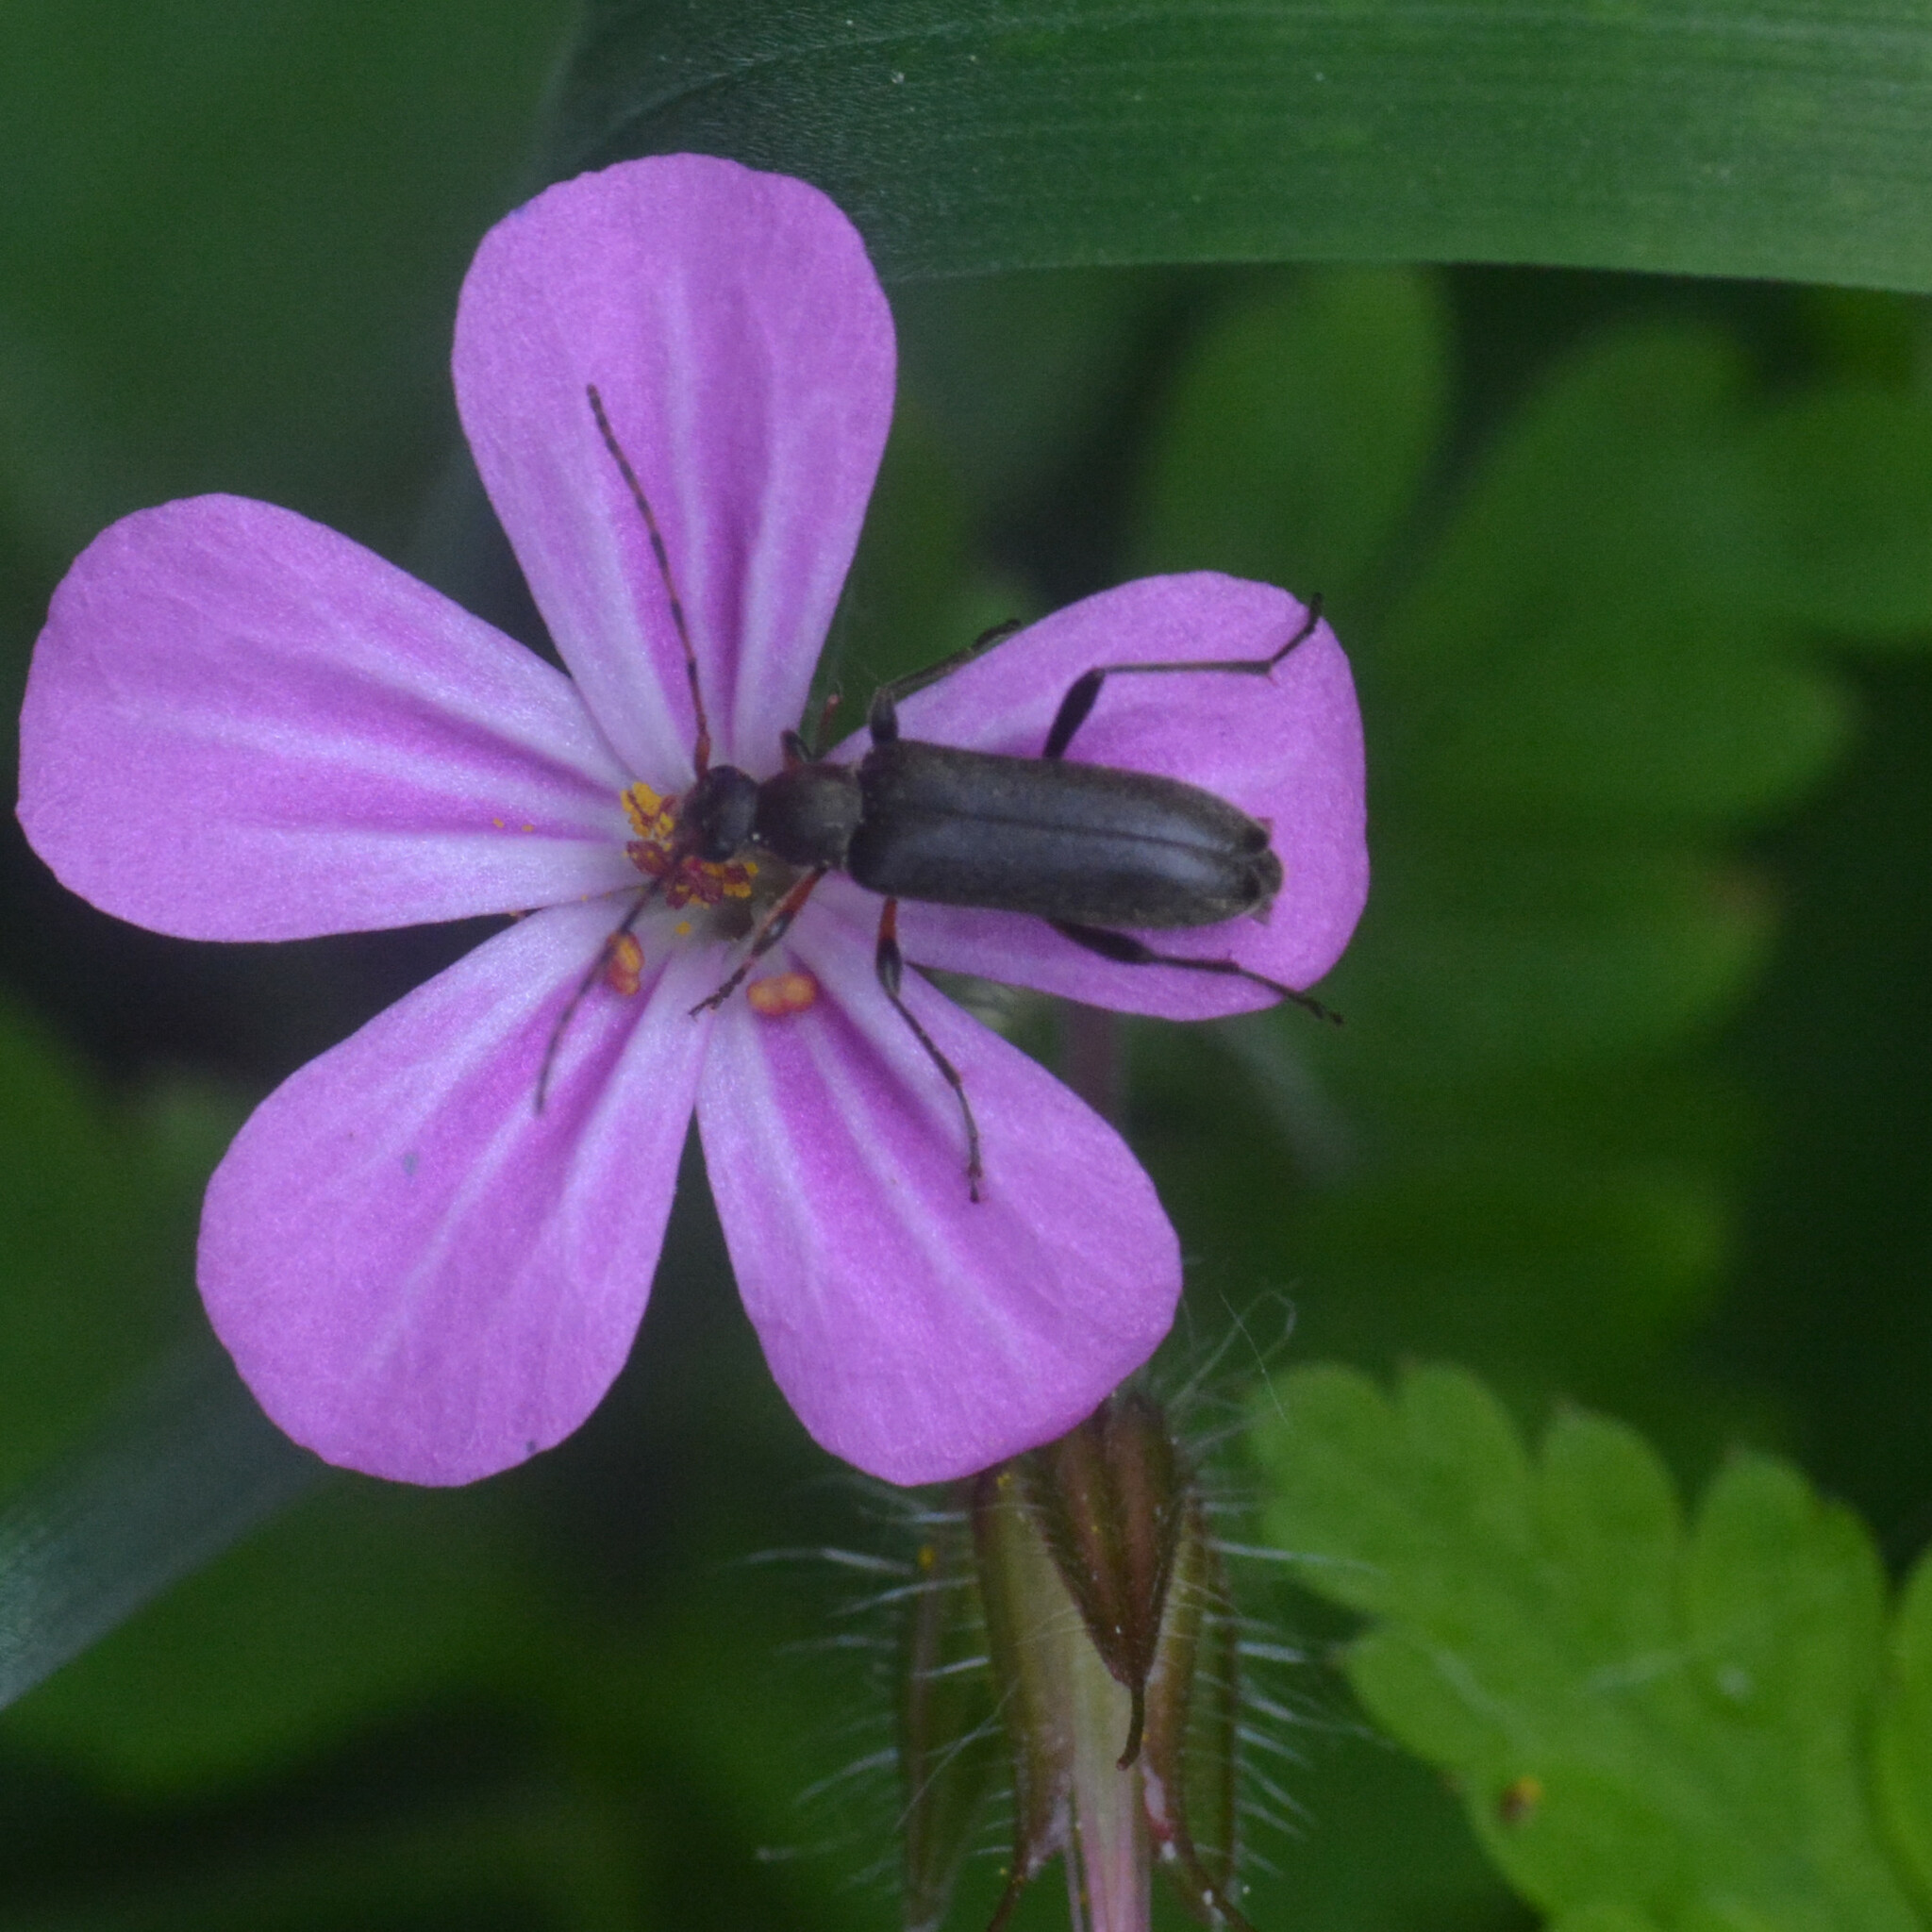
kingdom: Animalia
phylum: Arthropoda
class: Insecta
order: Coleoptera
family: Cerambycidae
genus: Grammoptera
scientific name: Grammoptera ruficornis
